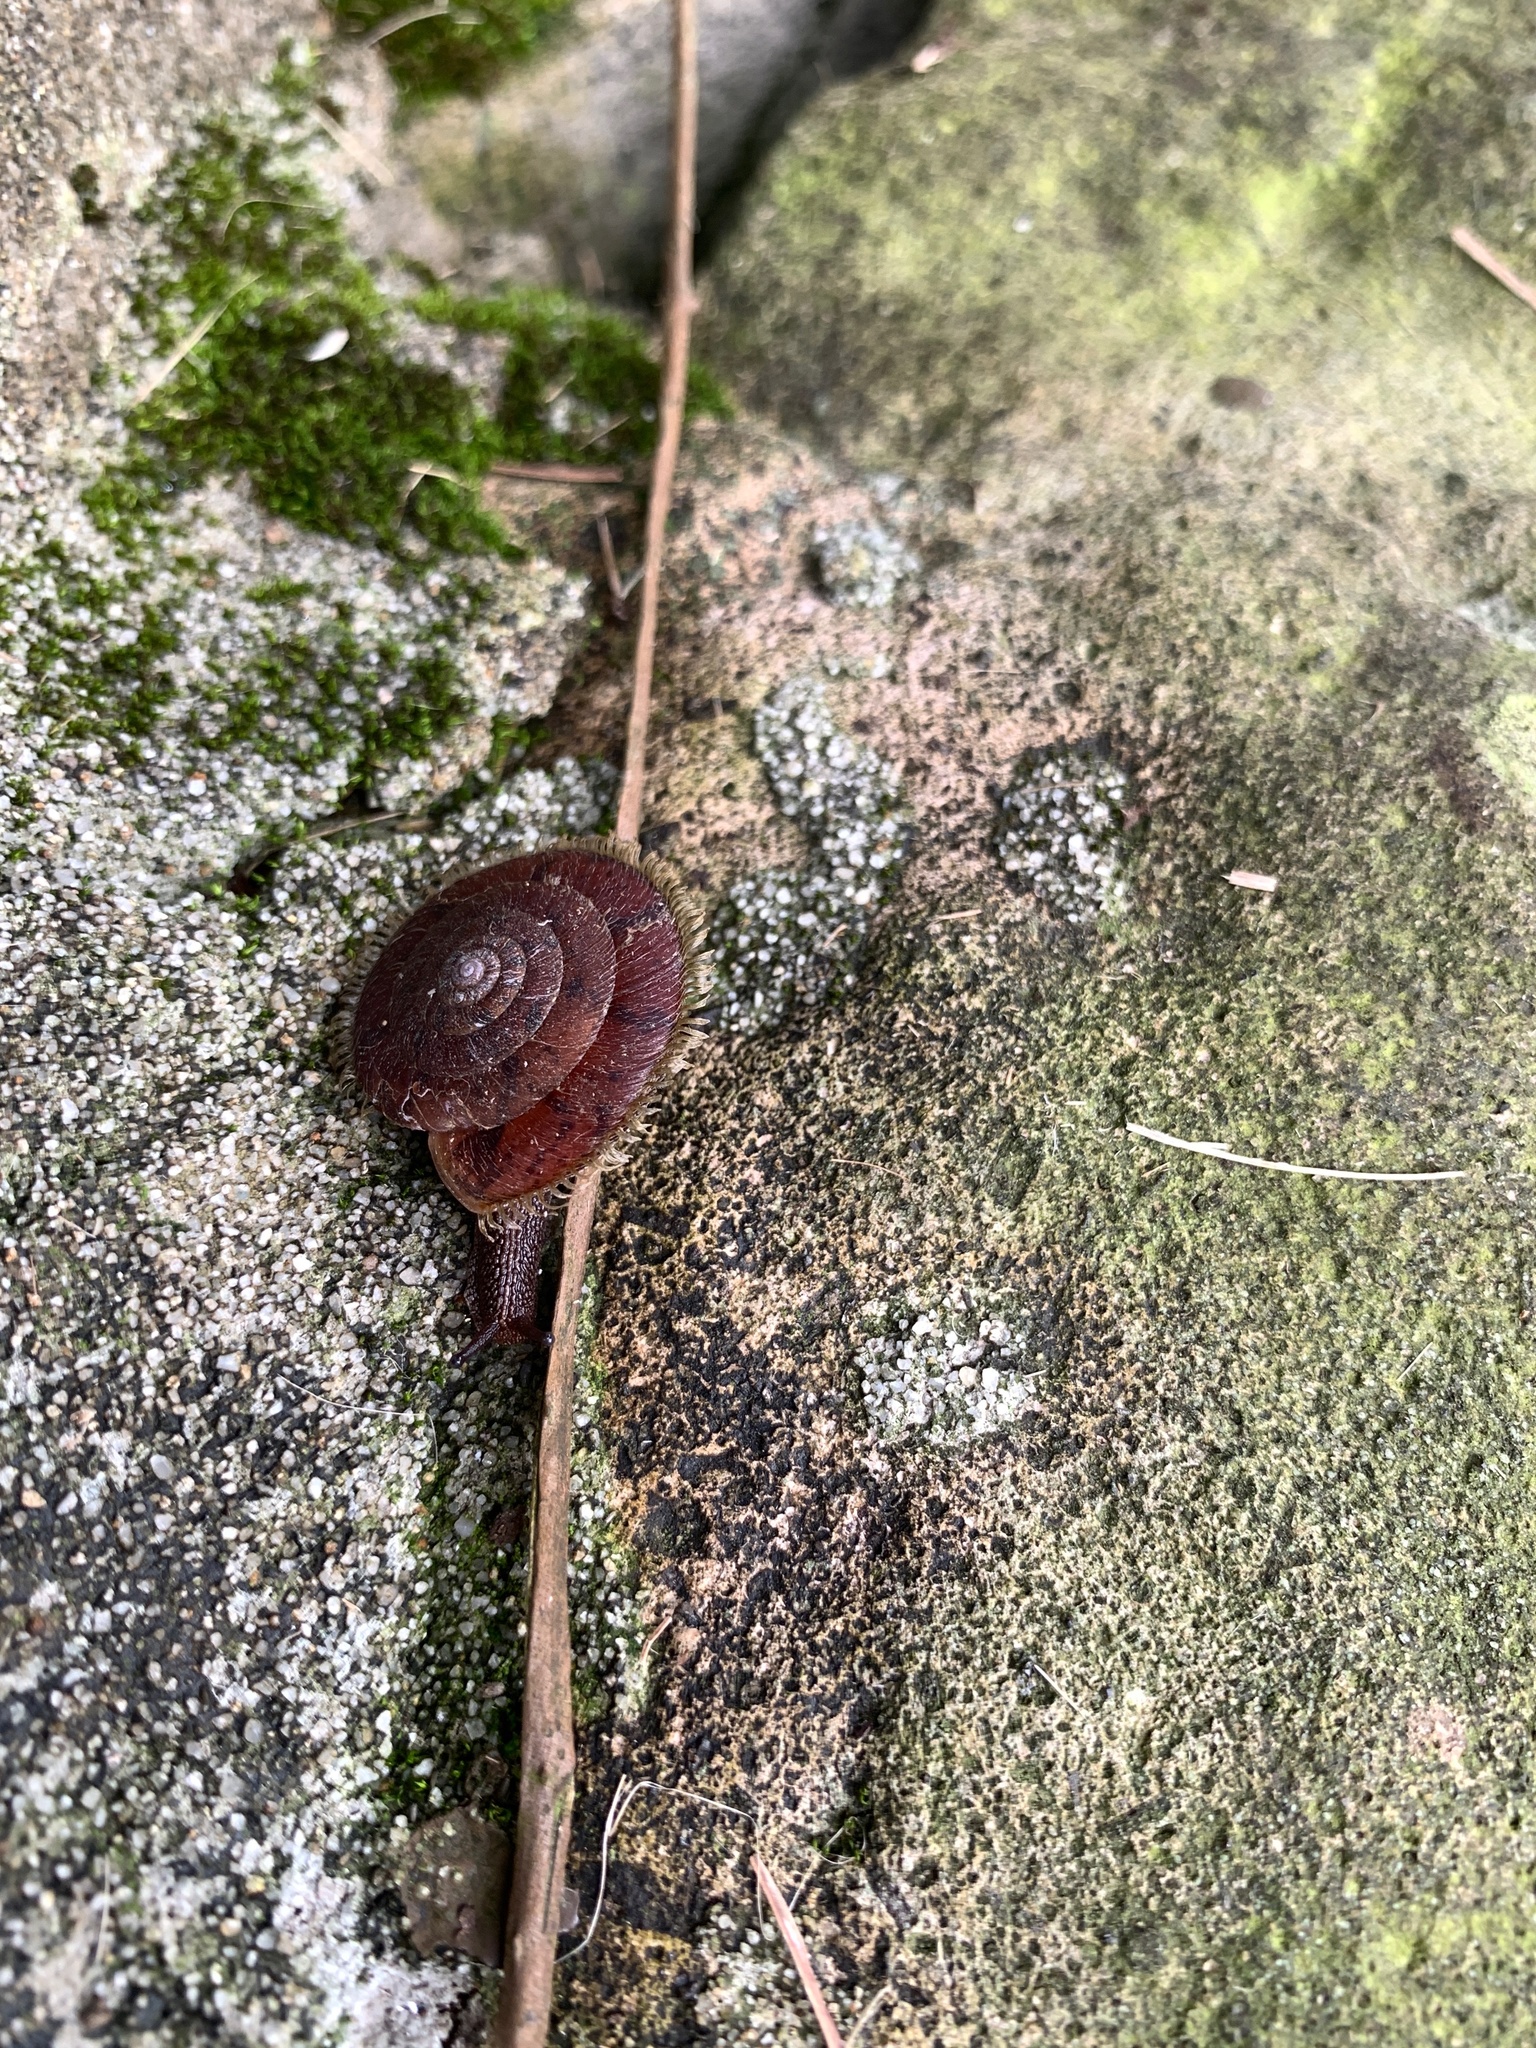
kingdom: Animalia
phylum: Mollusca
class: Gastropoda
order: Stylommatophora
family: Camaenidae
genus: Plectotropis
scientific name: Plectotropis mackensii
